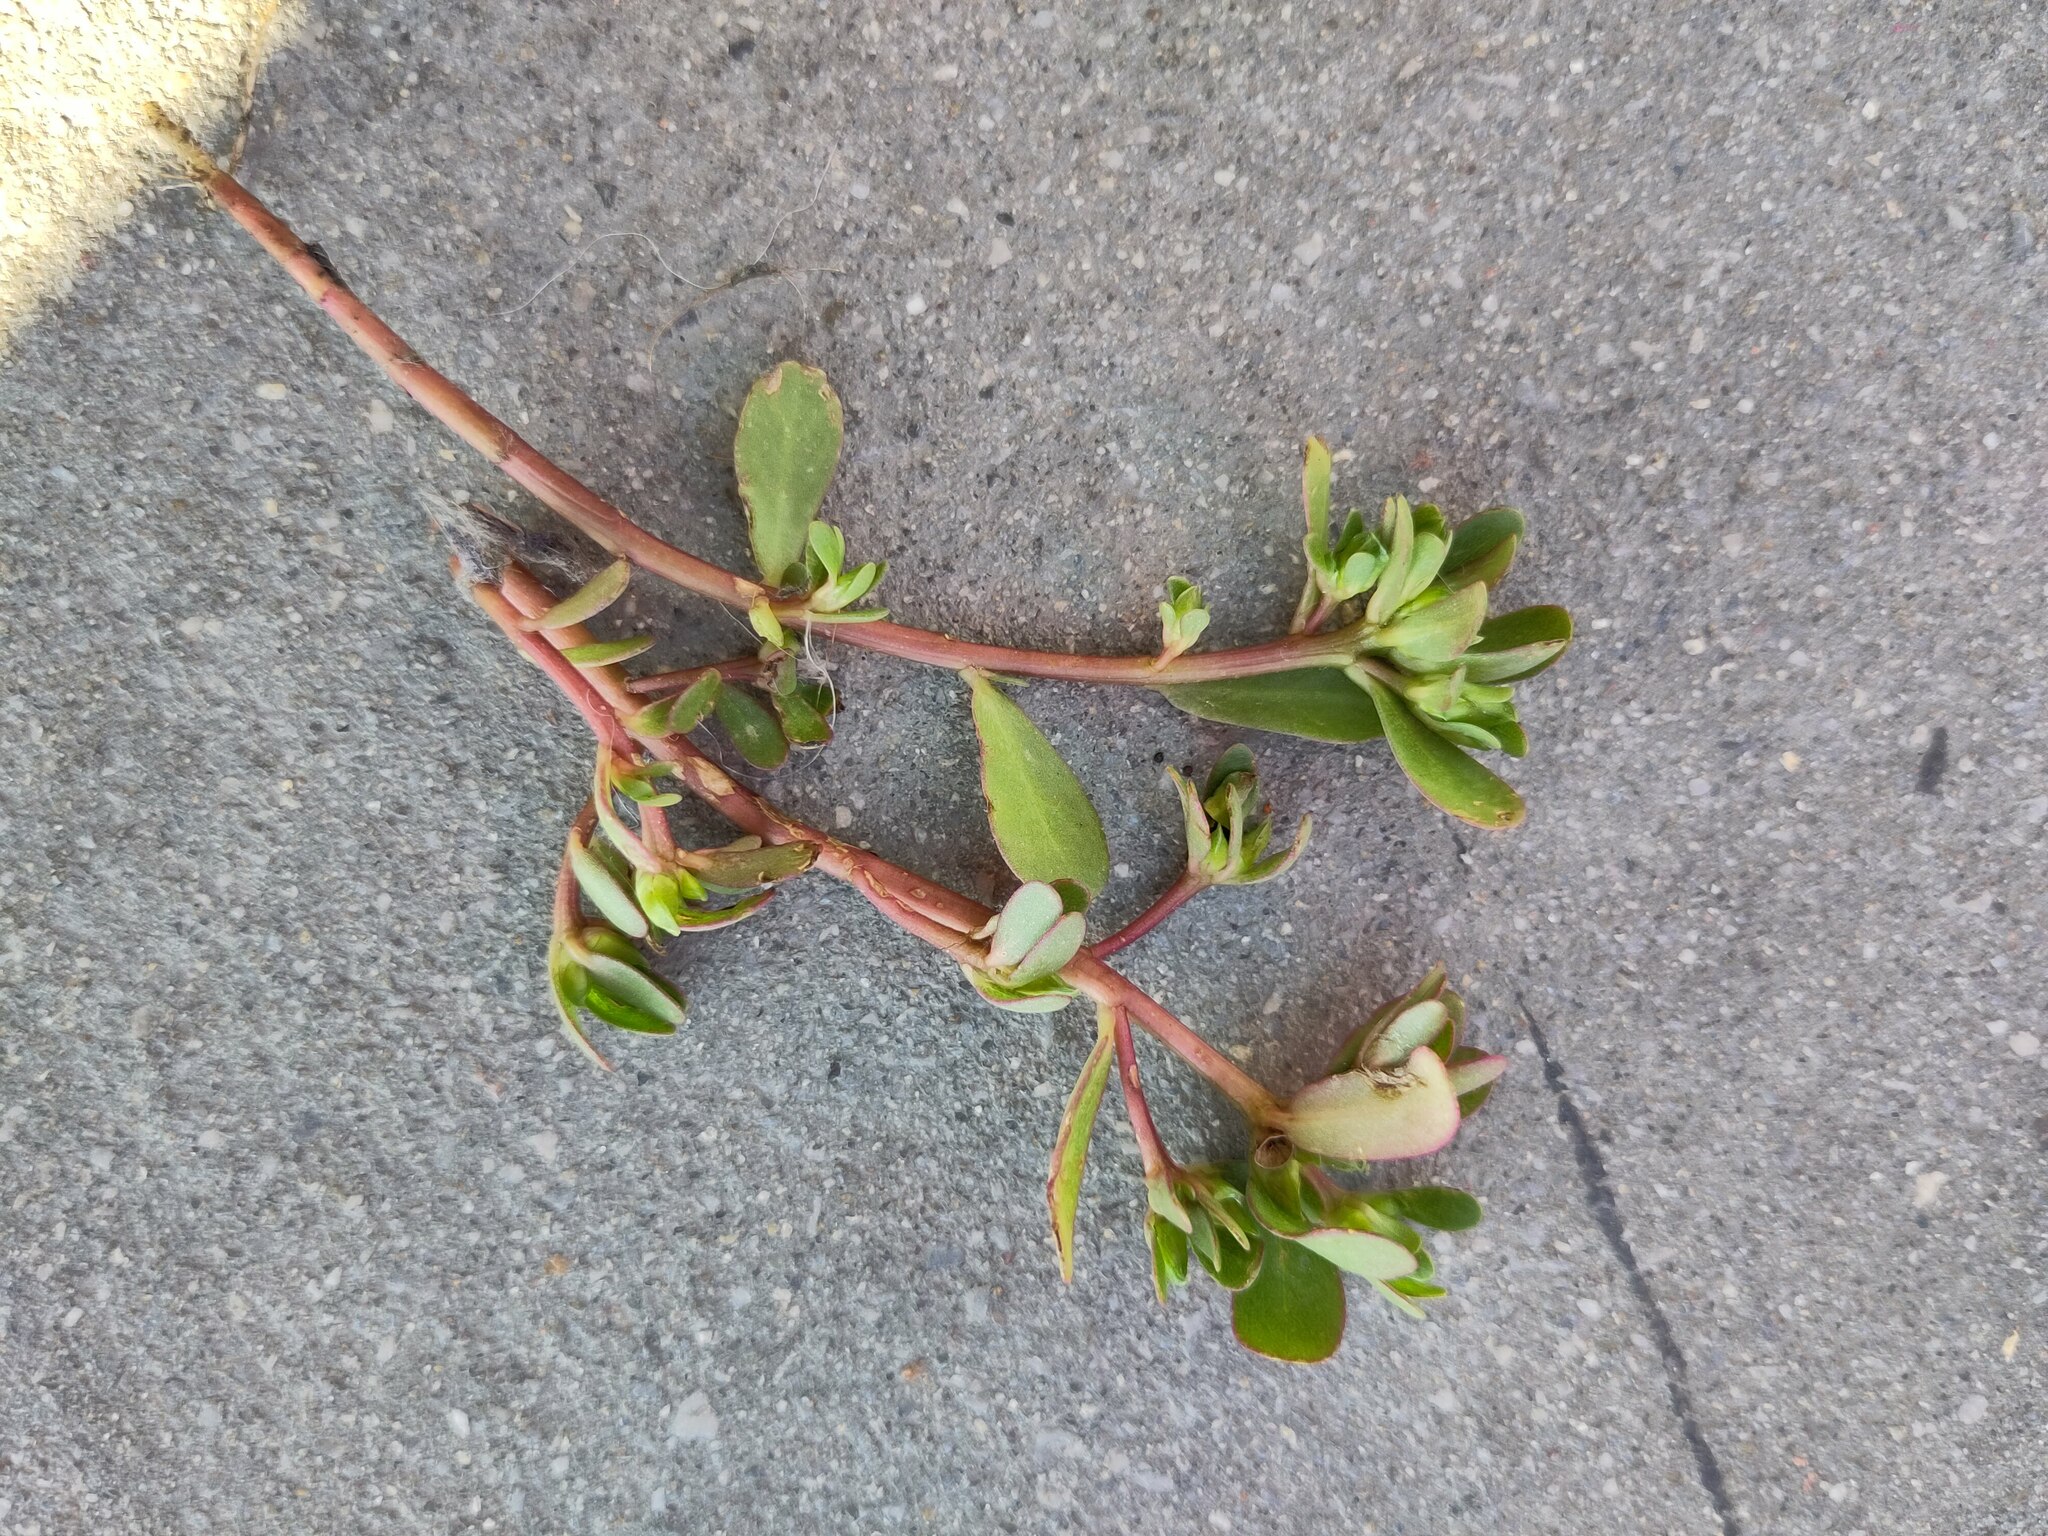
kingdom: Plantae
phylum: Tracheophyta
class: Magnoliopsida
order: Caryophyllales
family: Portulacaceae
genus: Portulaca
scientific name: Portulaca oleracea
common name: Common purslane
